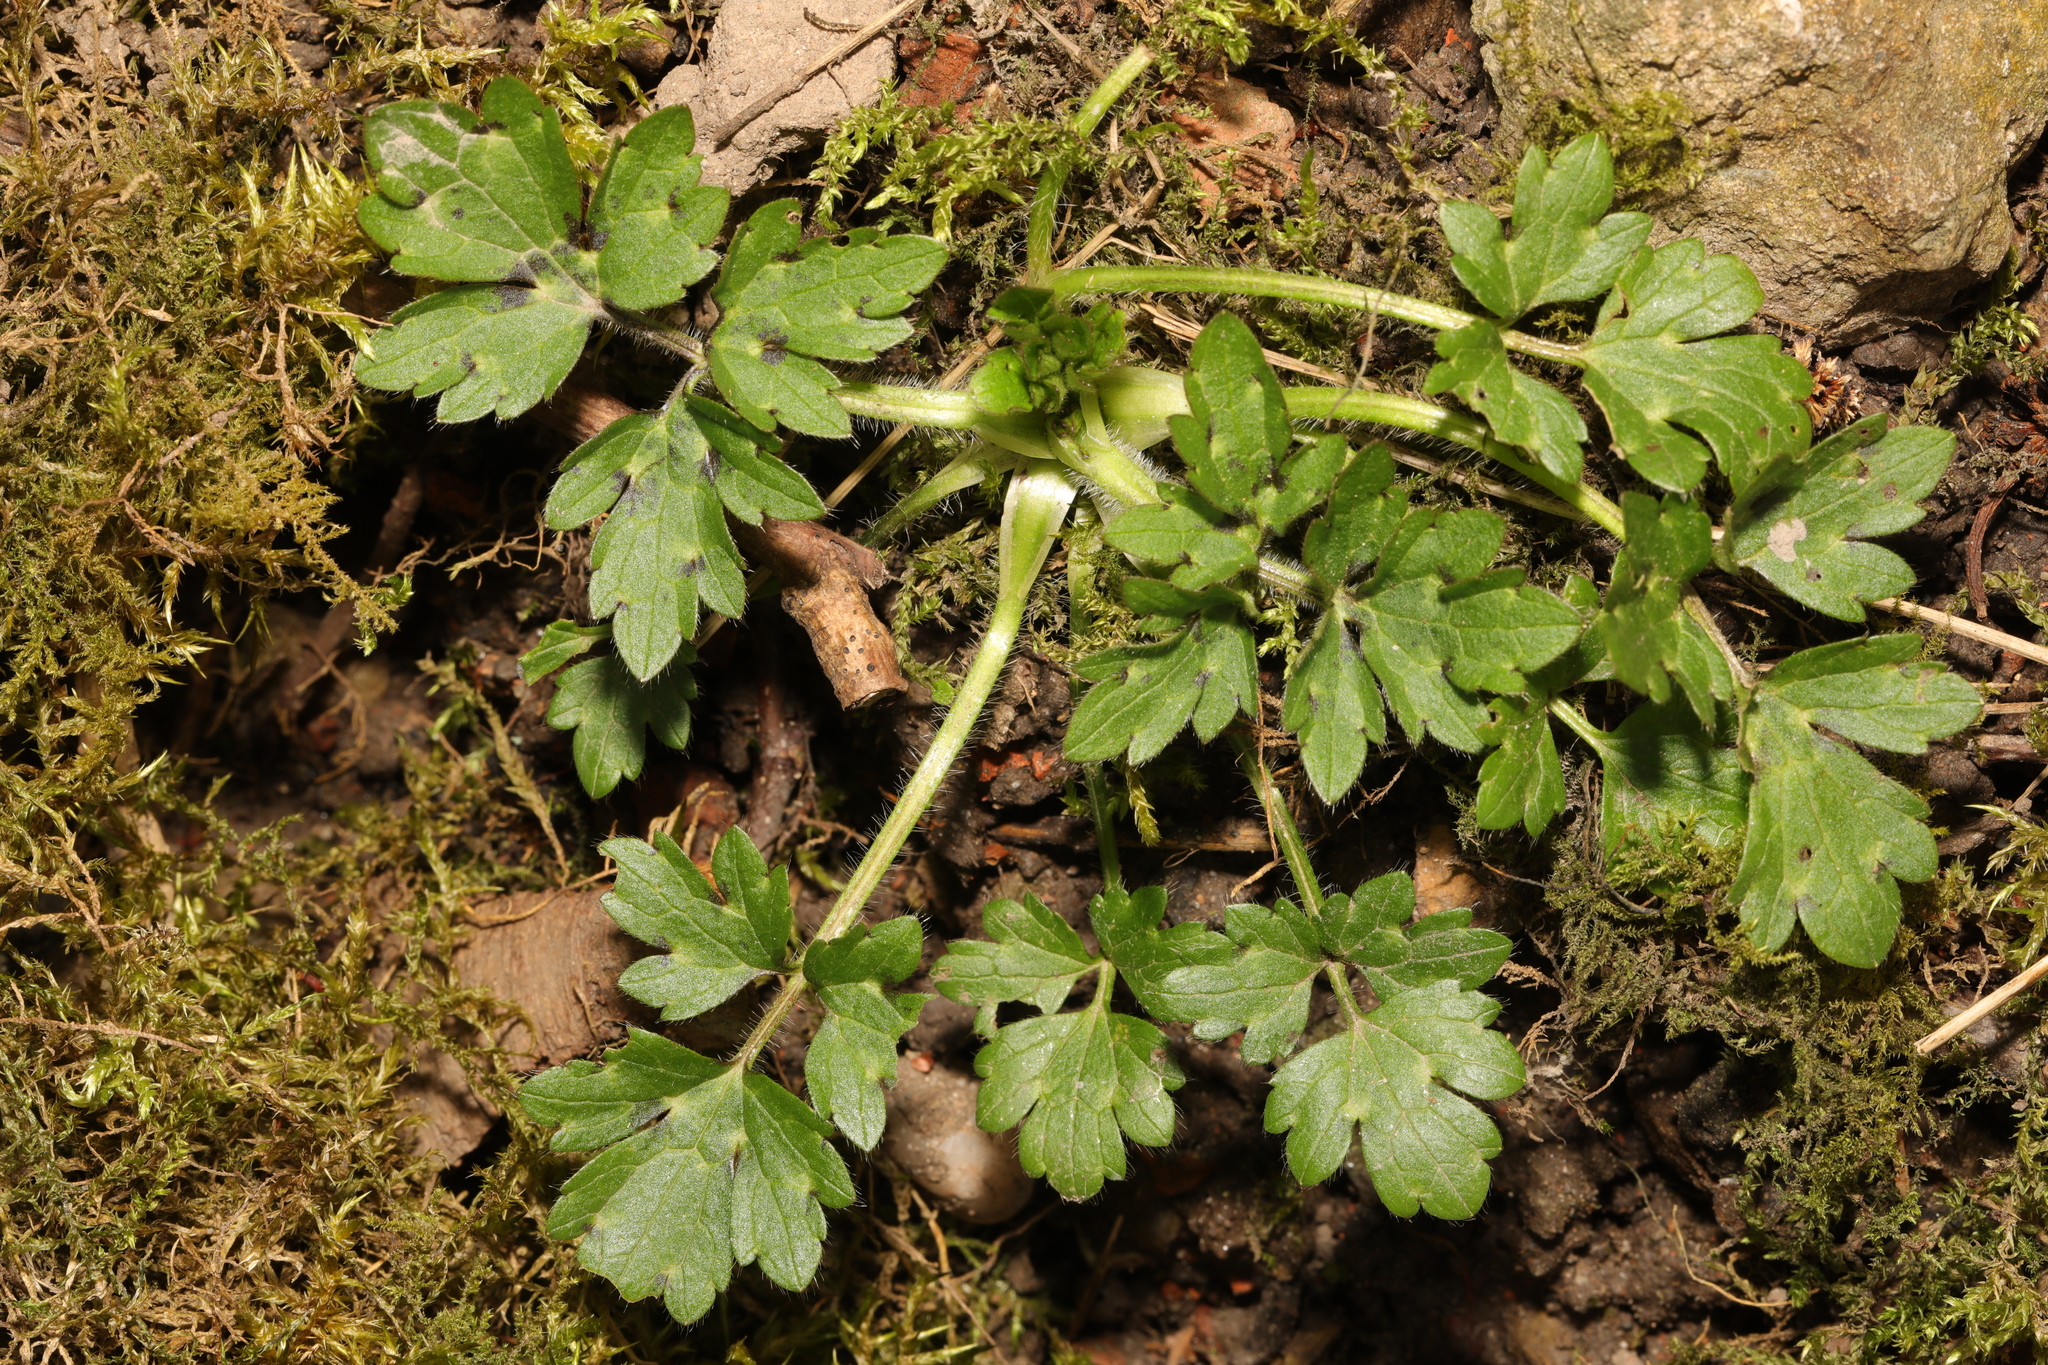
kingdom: Plantae
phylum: Tracheophyta
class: Magnoliopsida
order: Ranunculales
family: Ranunculaceae
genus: Ranunculus
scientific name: Ranunculus repens
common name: Creeping buttercup
